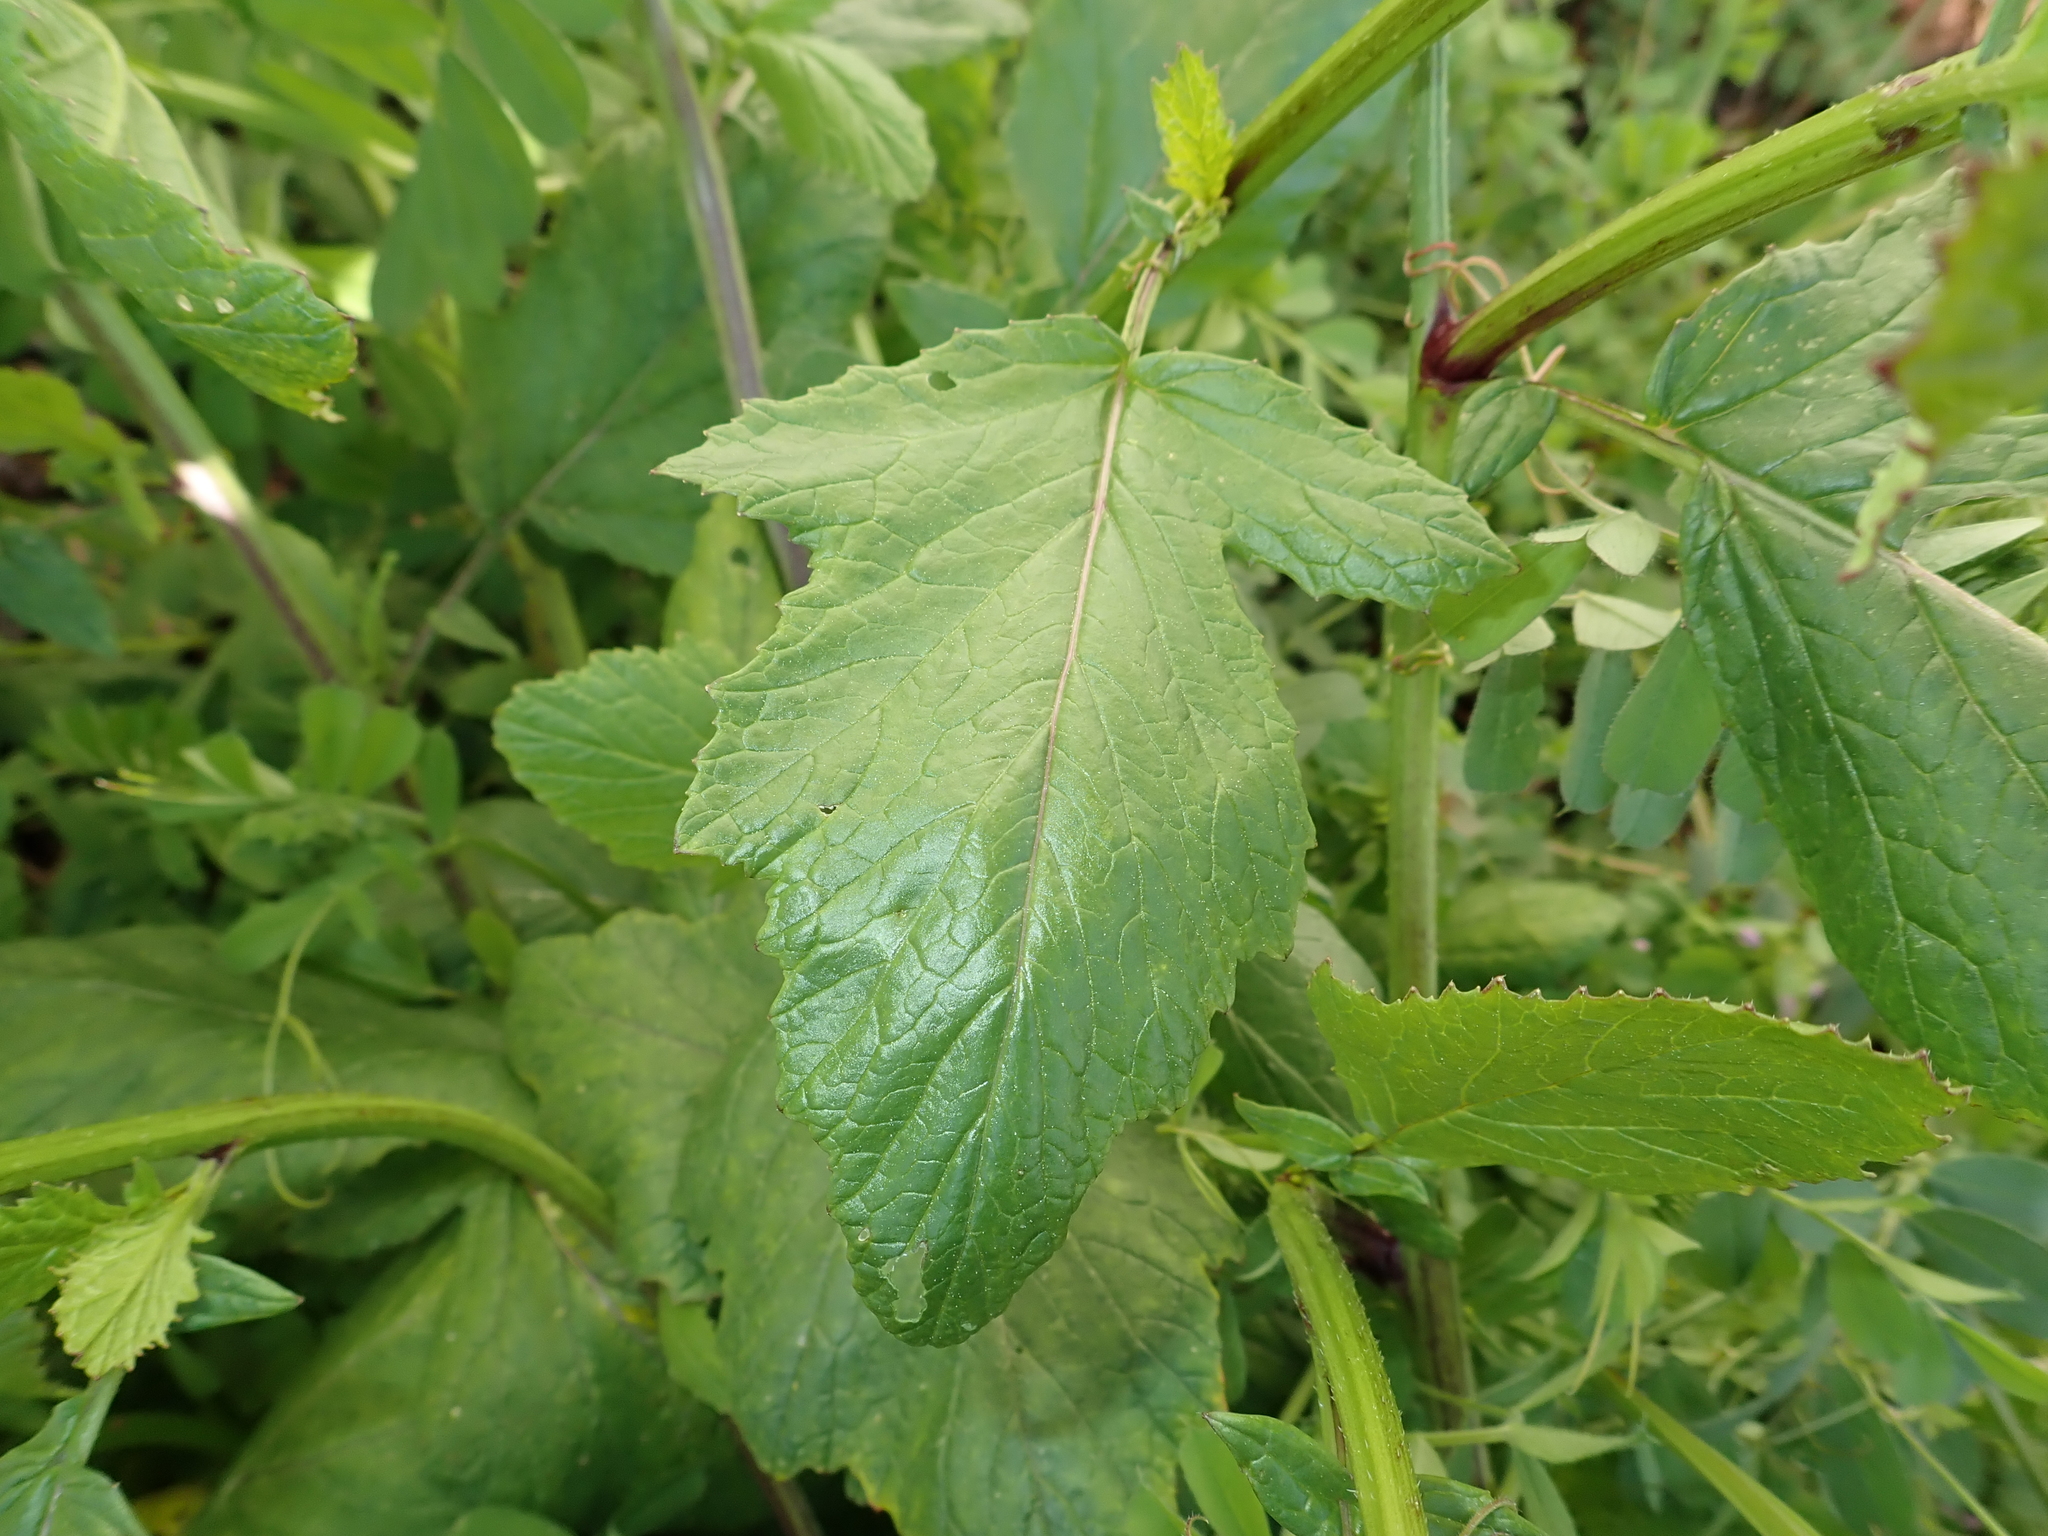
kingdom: Plantae
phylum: Tracheophyta
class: Magnoliopsida
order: Brassicales
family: Brassicaceae
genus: Sinapis
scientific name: Sinapis arvensis
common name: Charlock
